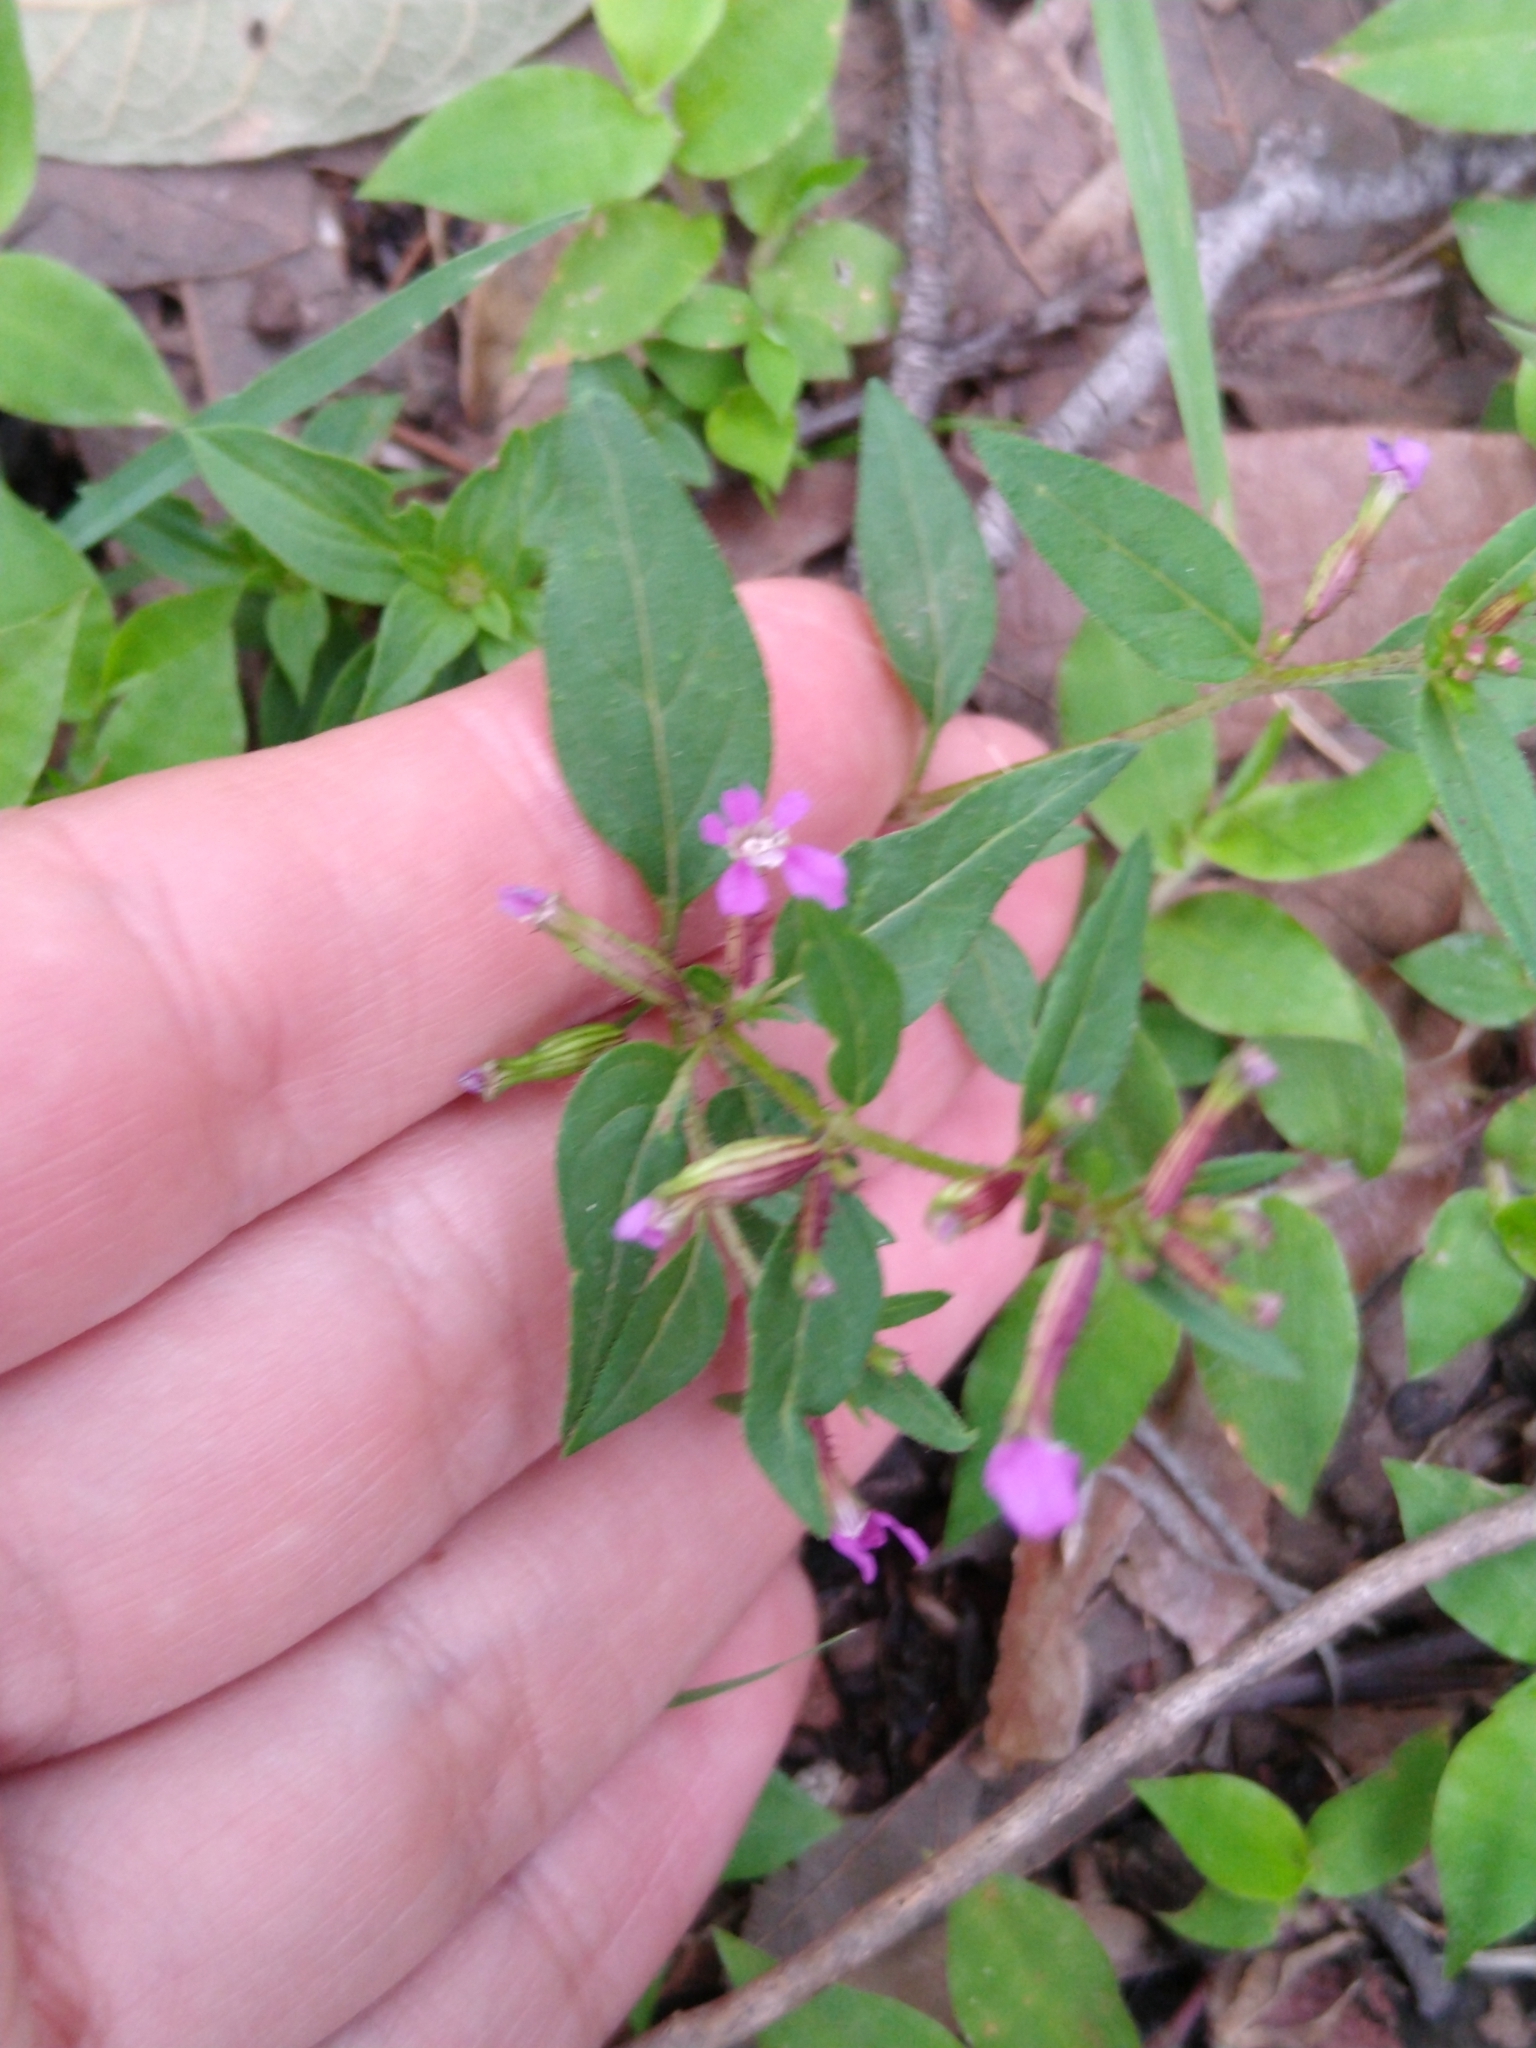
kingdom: Plantae
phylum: Tracheophyta
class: Magnoliopsida
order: Myrtales
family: Lythraceae
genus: Cuphea
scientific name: Cuphea wrightii
